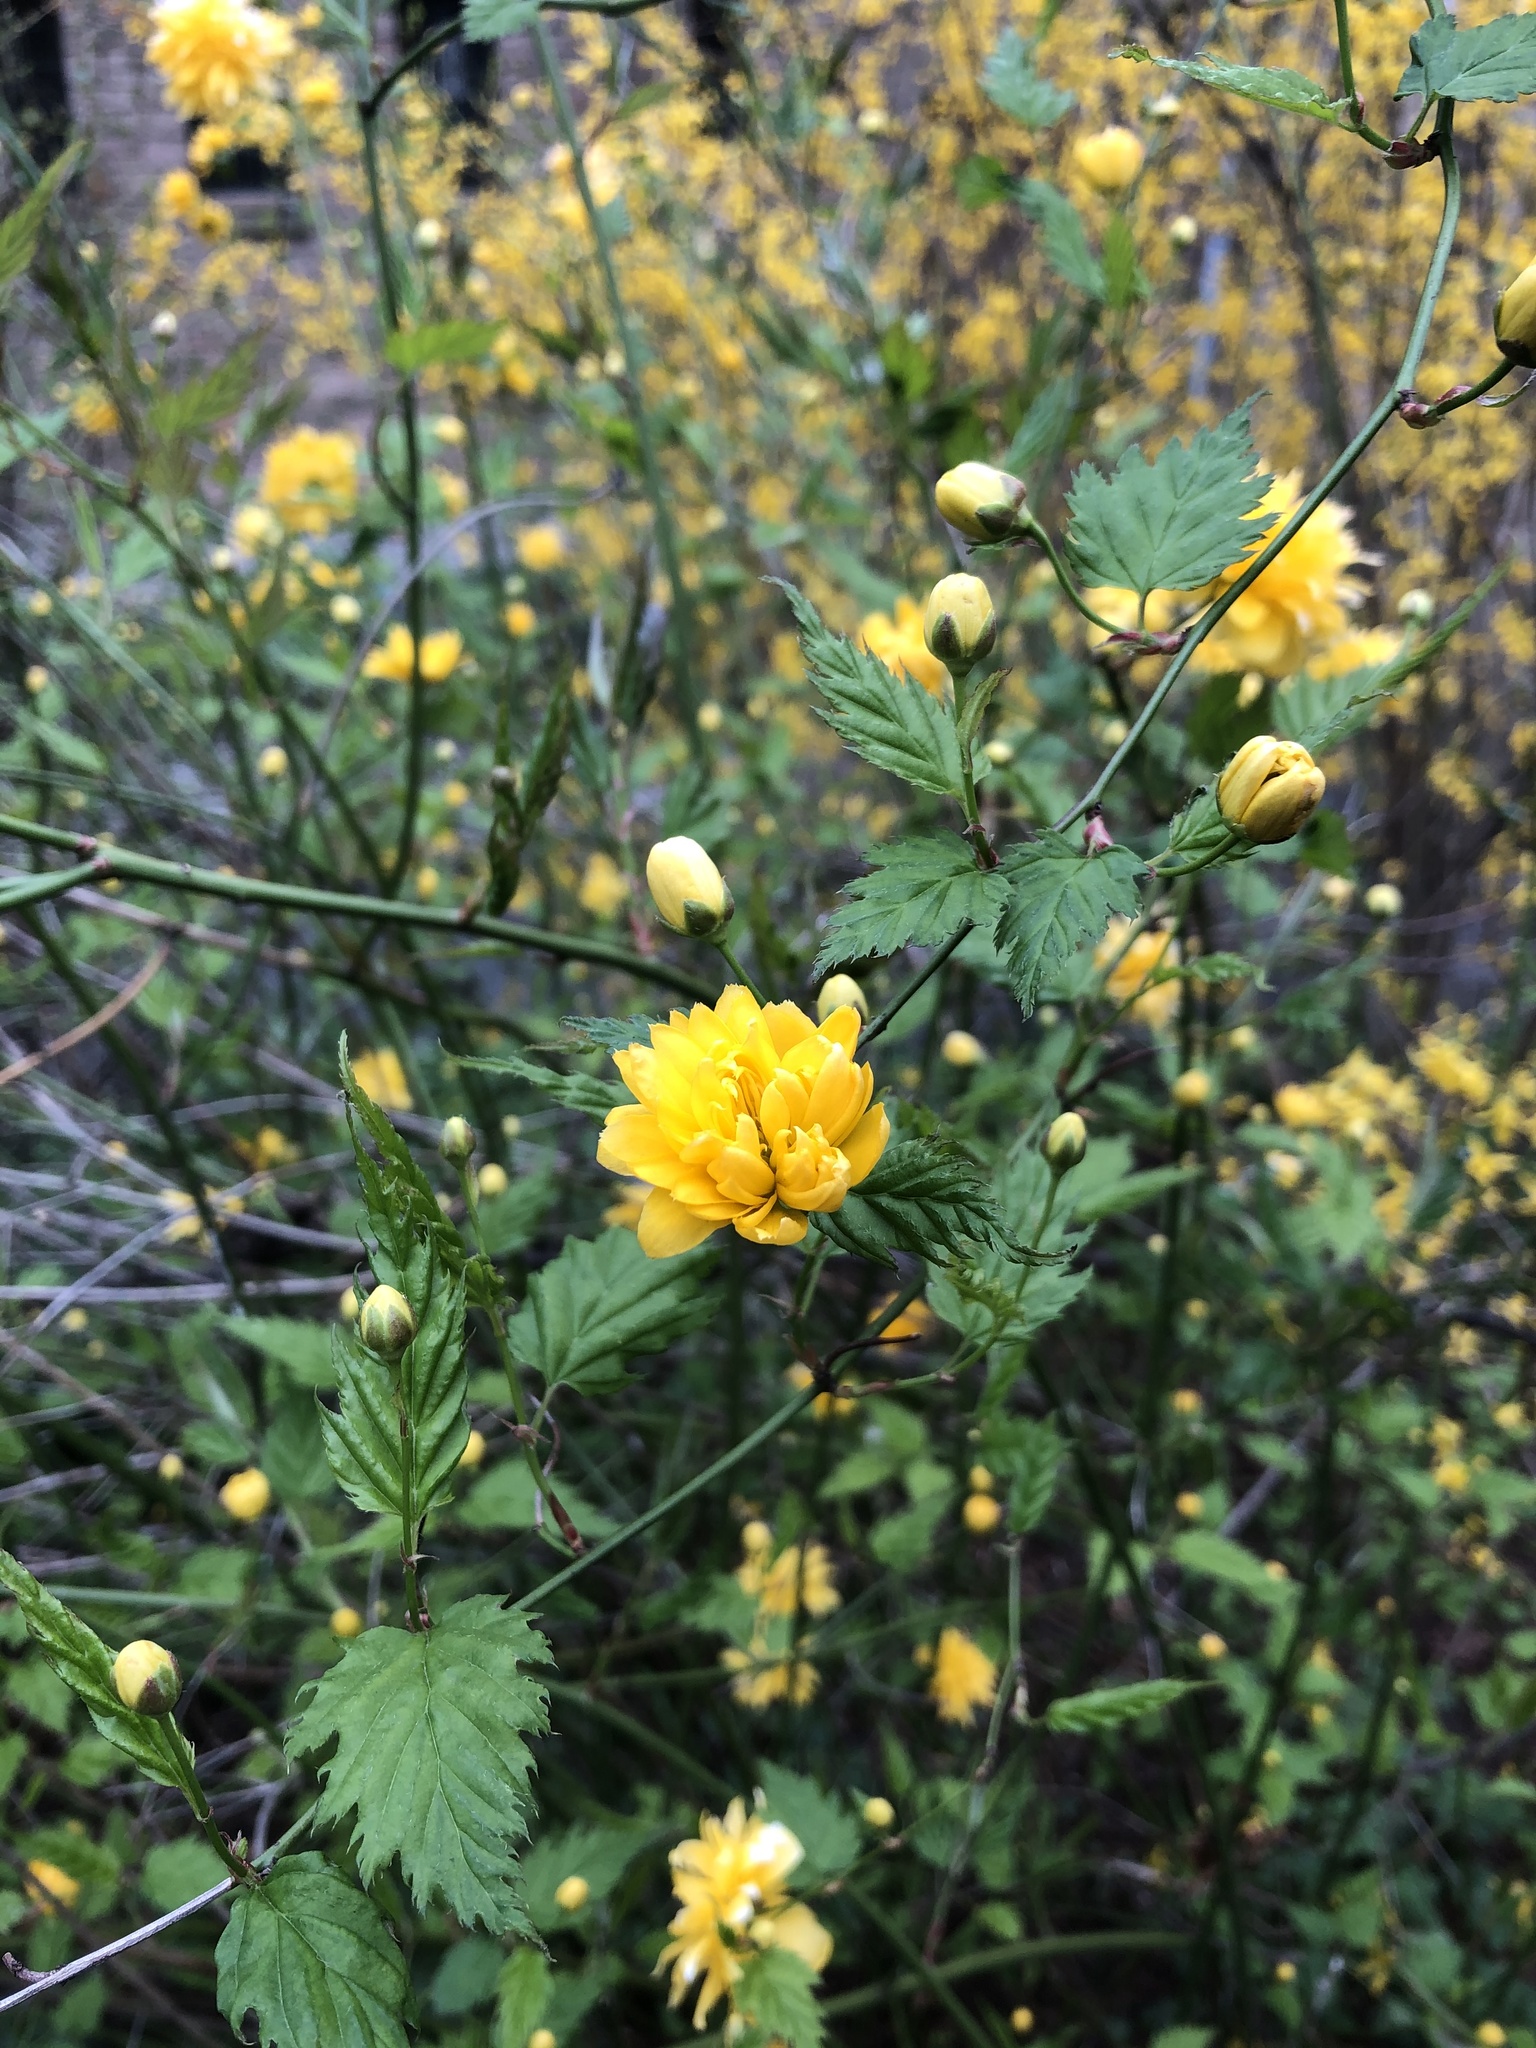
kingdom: Plantae
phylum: Tracheophyta
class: Magnoliopsida
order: Rosales
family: Rosaceae
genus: Kerria
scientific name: Kerria japonica
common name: Japanese kerria
